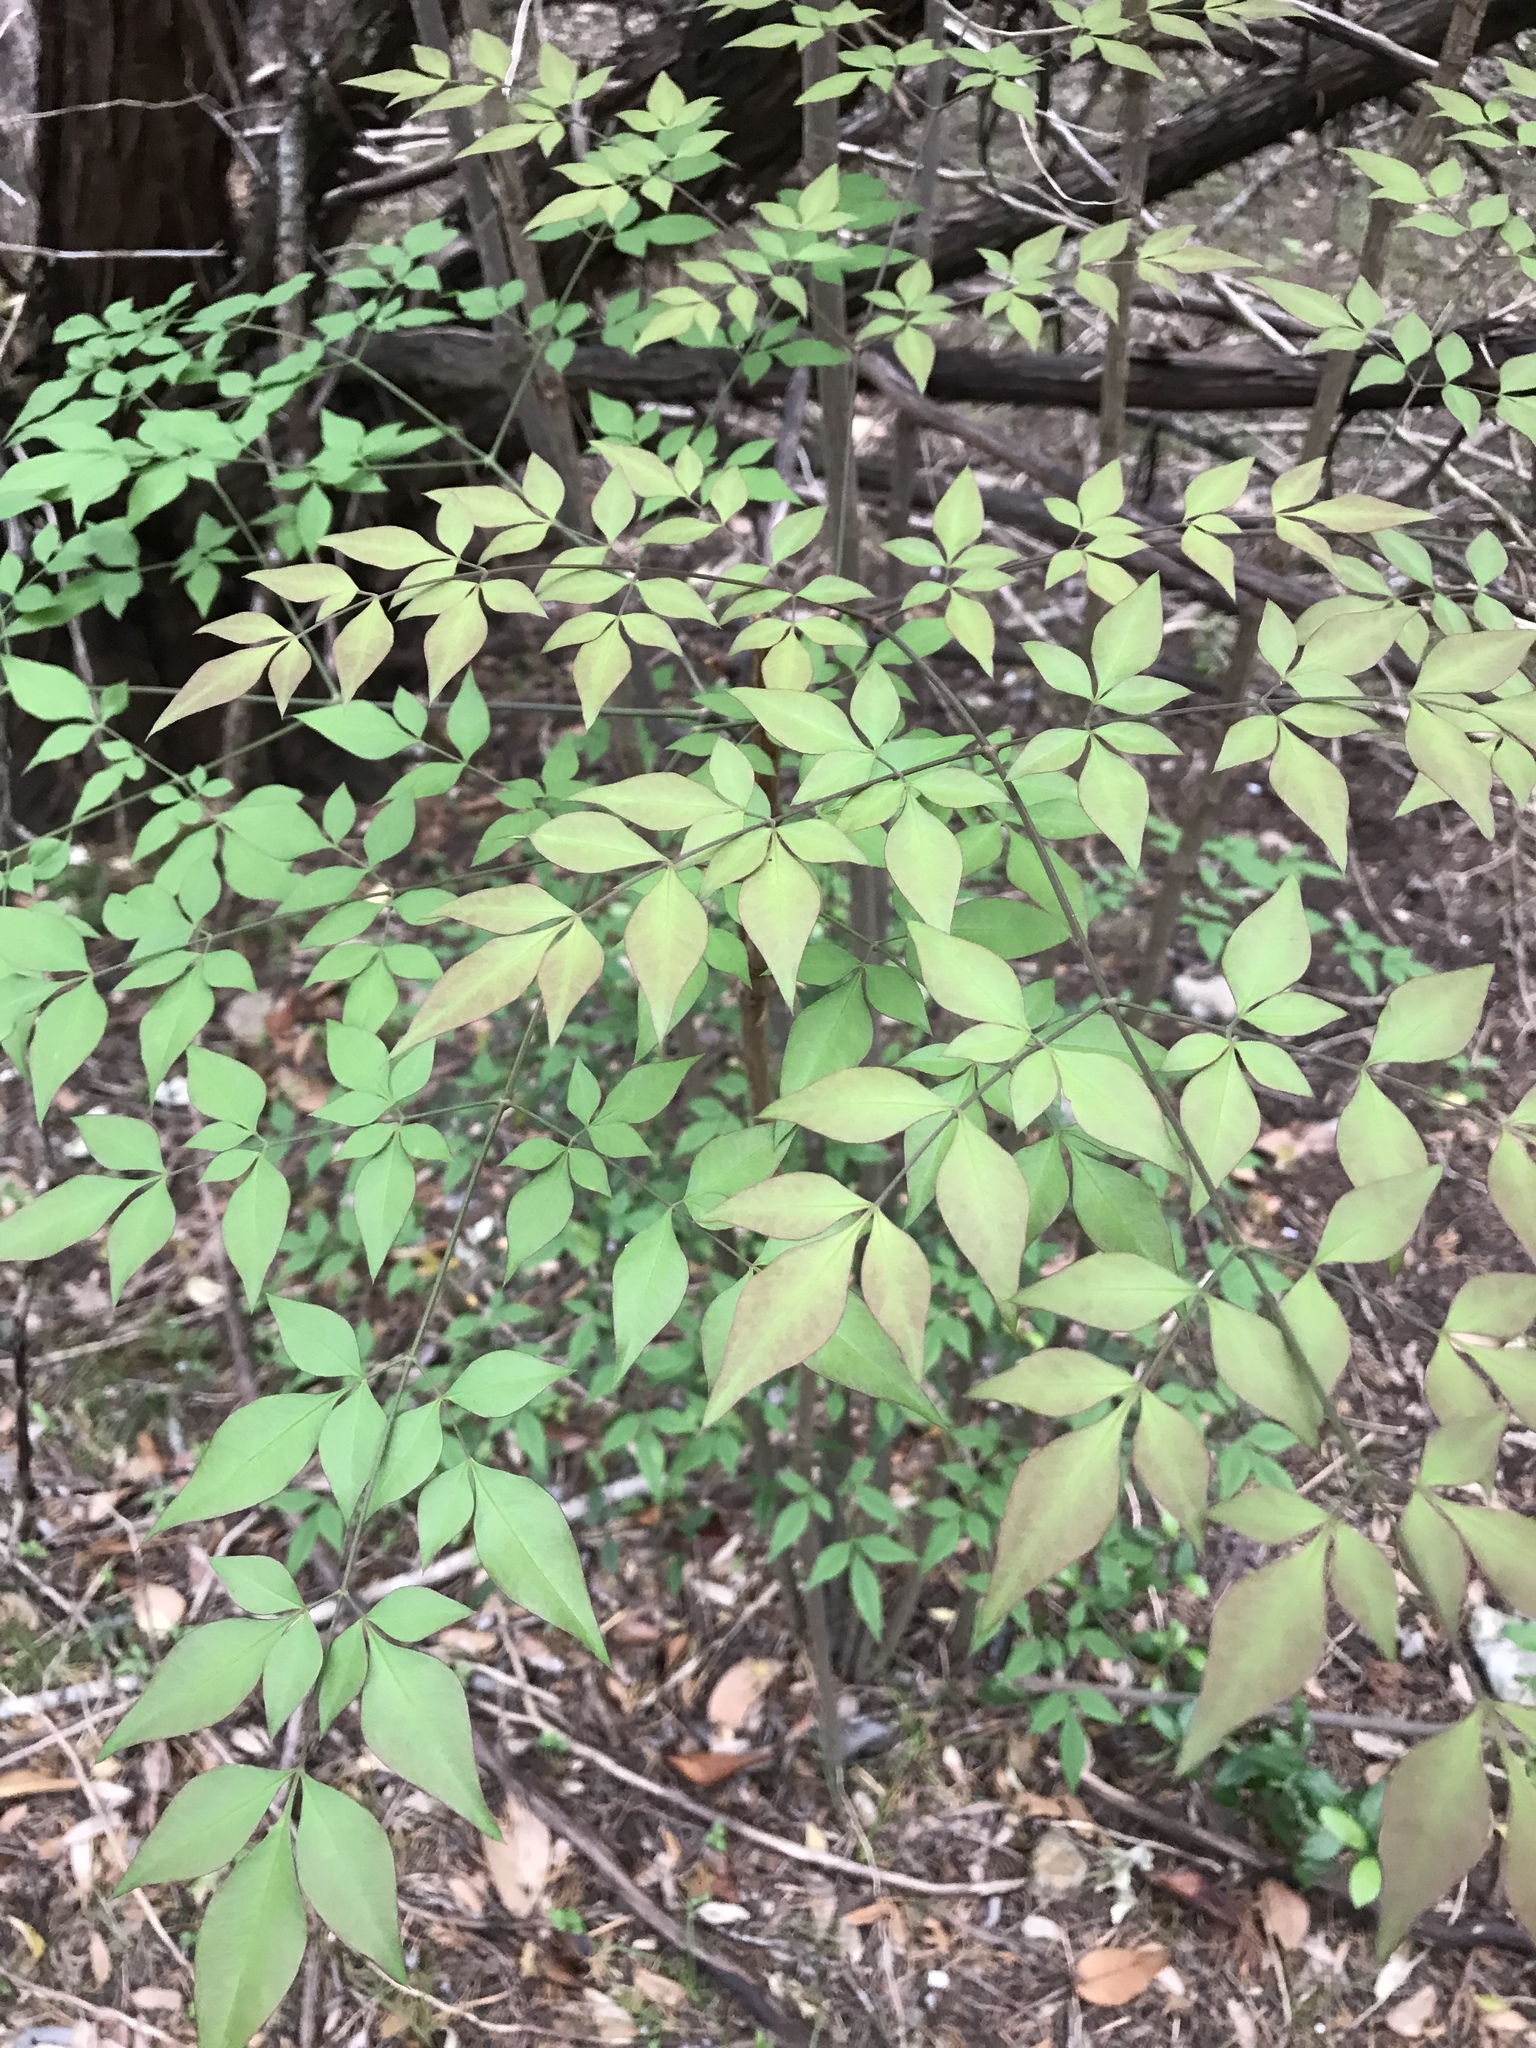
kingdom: Plantae
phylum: Tracheophyta
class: Magnoliopsida
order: Ranunculales
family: Berberidaceae
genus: Nandina
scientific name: Nandina domestica
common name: Sacred bamboo
